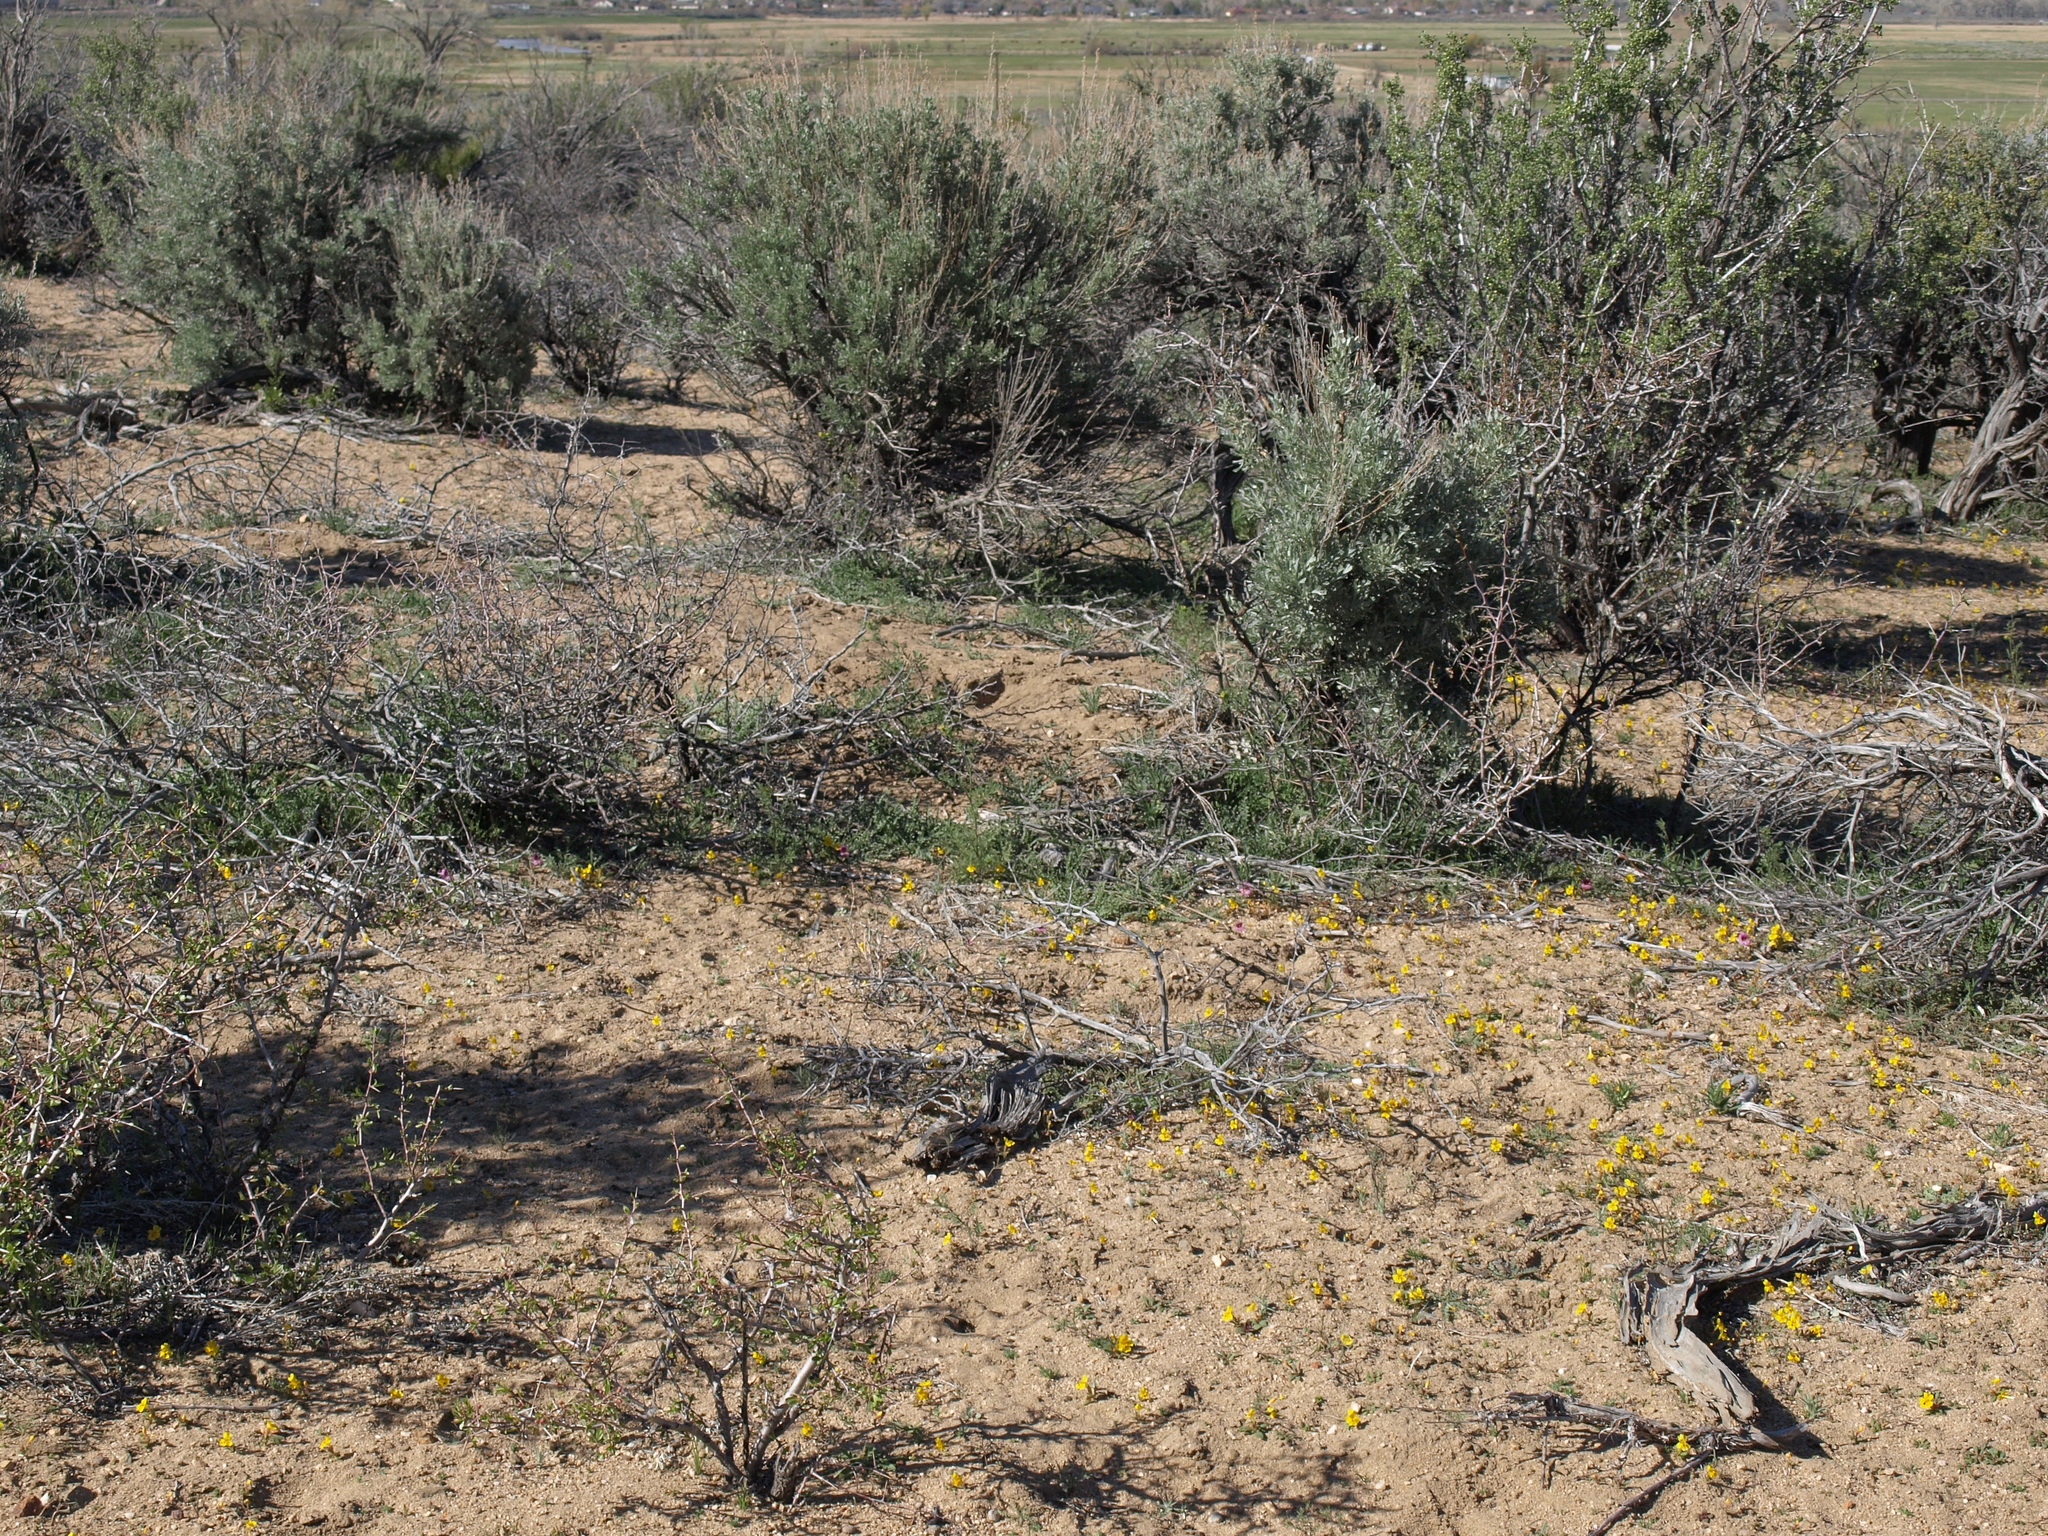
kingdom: Plantae
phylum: Tracheophyta
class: Magnoliopsida
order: Lamiales
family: Phrymaceae
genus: Erythranthe
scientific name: Erythranthe carsonensis
